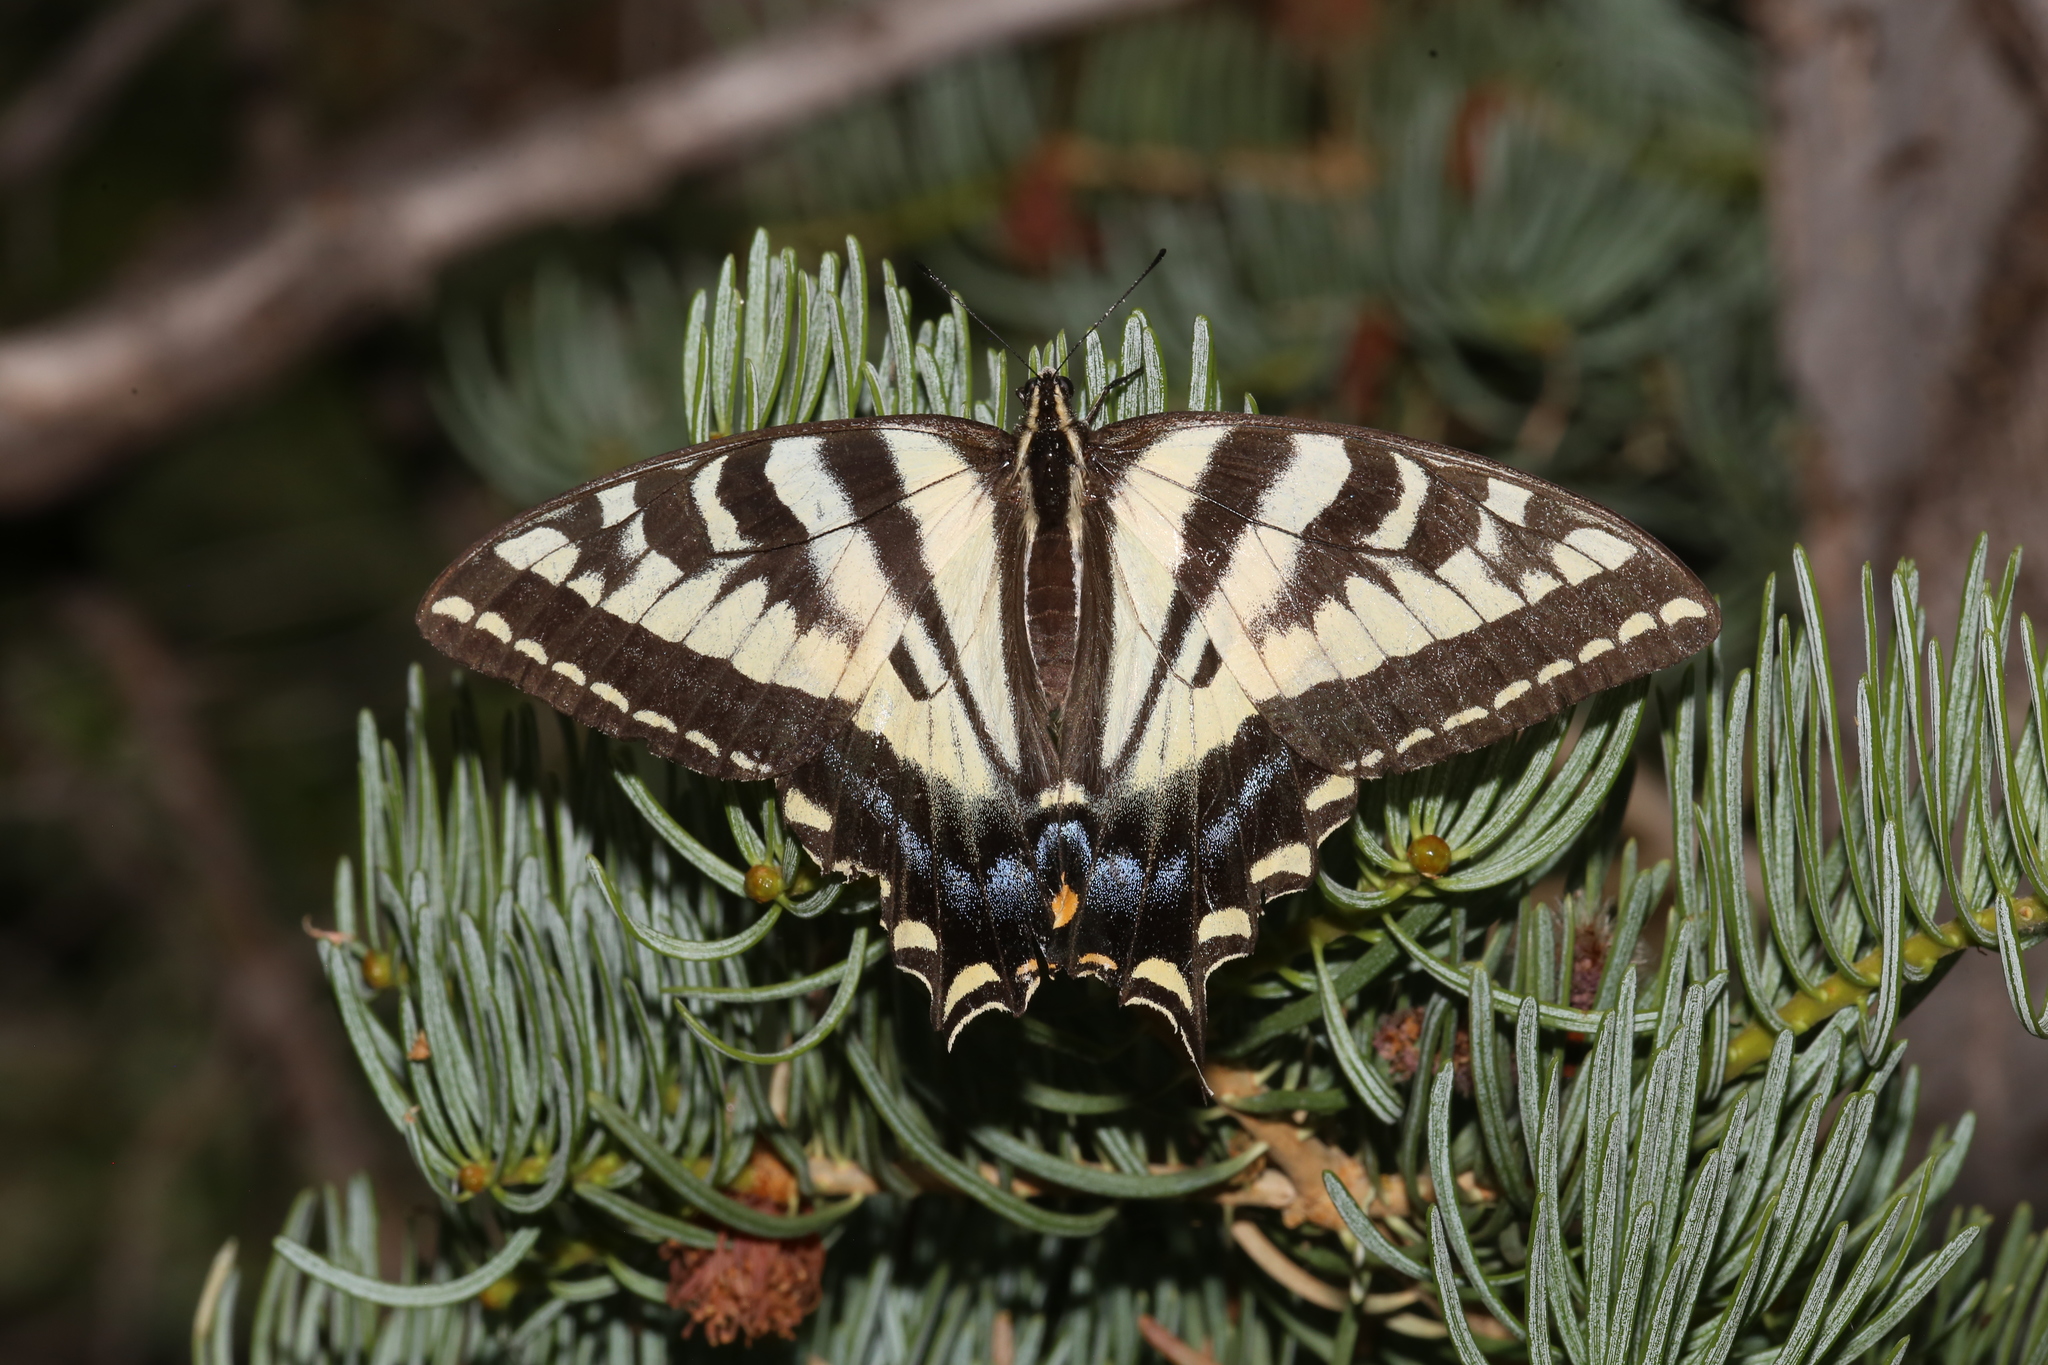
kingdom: Animalia
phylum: Arthropoda
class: Insecta
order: Lepidoptera
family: Papilionidae
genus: Papilio
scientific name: Papilio rutulus
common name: Western tiger swallowtail
